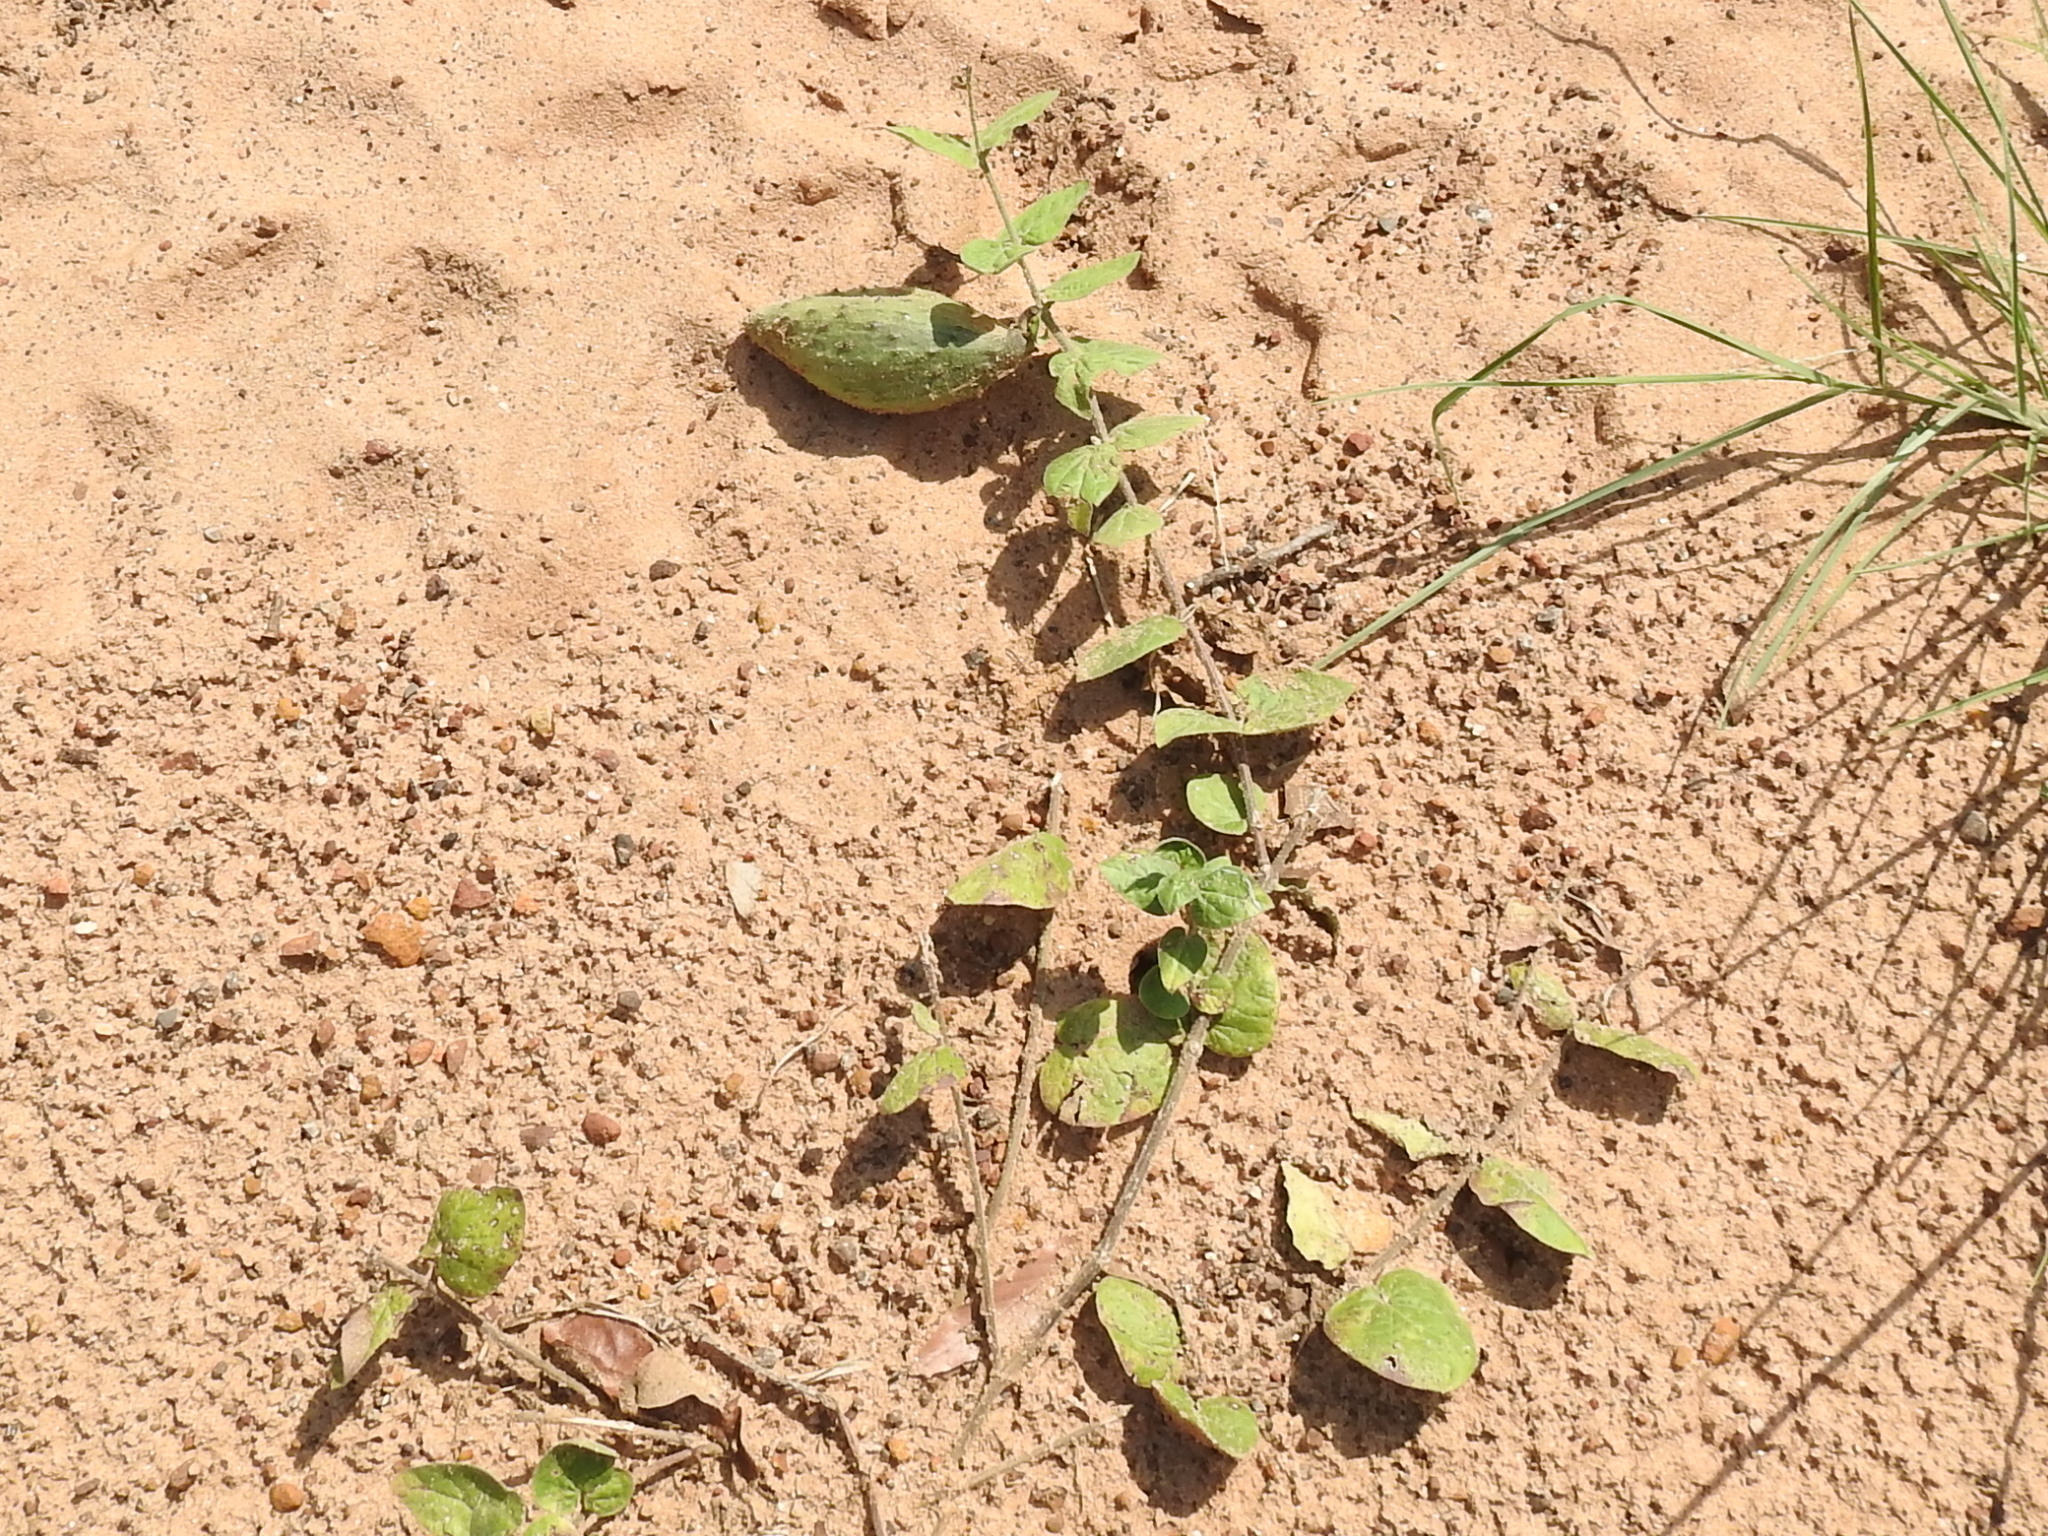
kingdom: Plantae
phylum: Tracheophyta
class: Magnoliopsida
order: Gentianales
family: Apocynaceae
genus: Matelea
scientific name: Matelea cynanchoides
